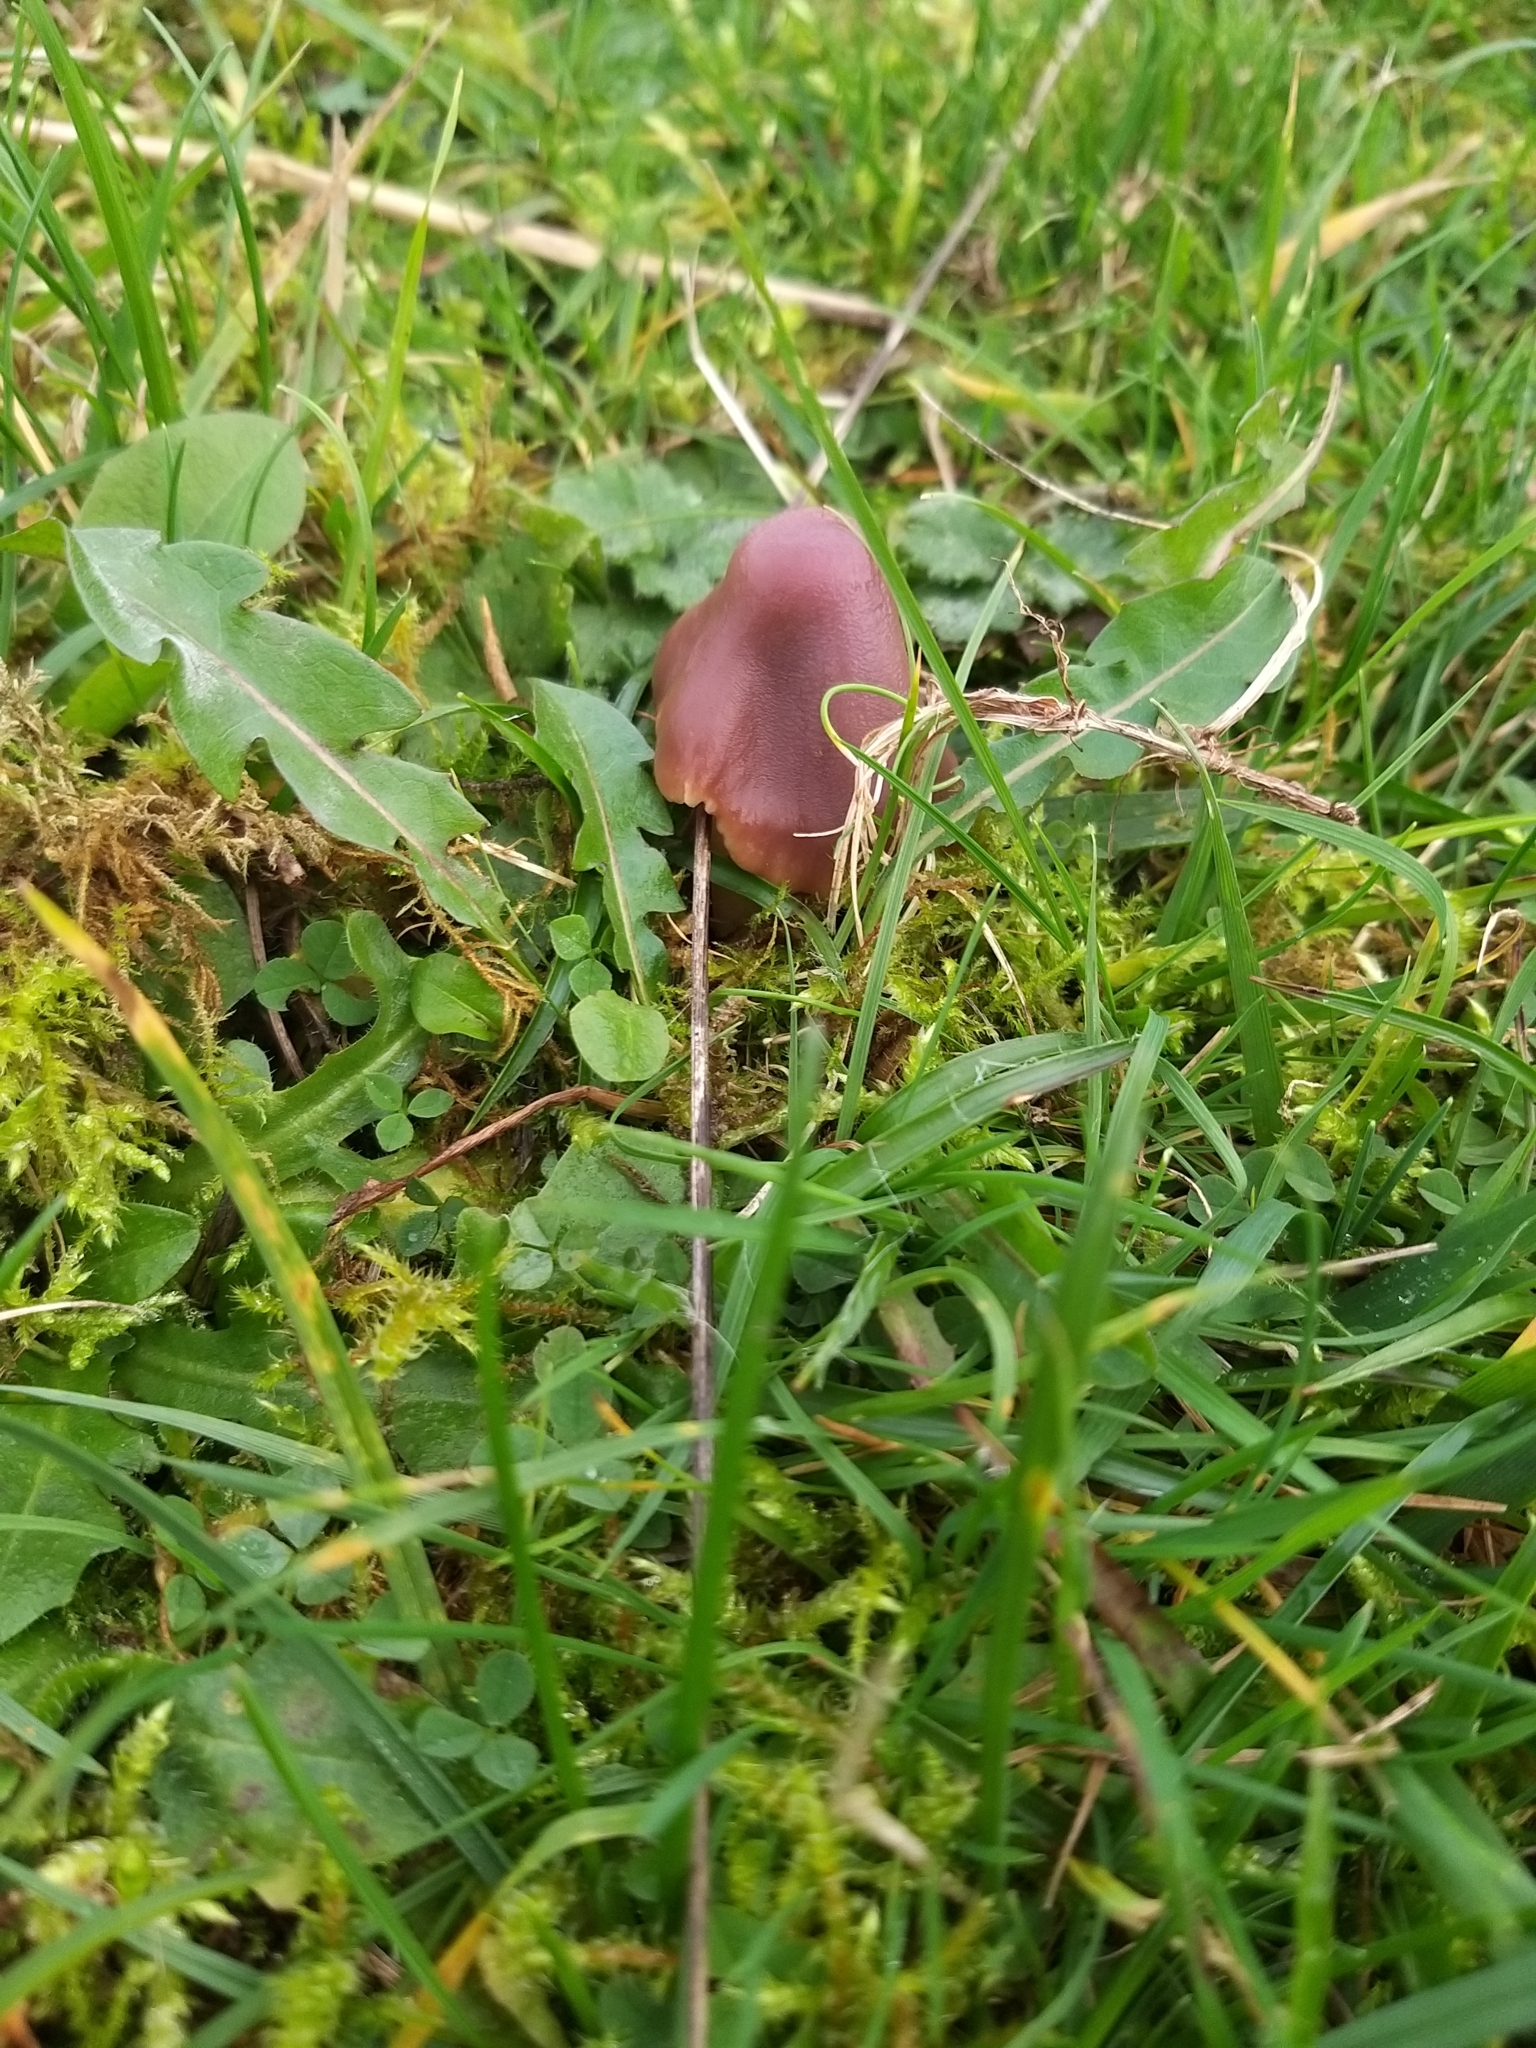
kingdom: Fungi
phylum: Basidiomycota
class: Agaricomycetes
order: Agaricales
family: Hygrophoraceae
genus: Gliophorus
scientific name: Gliophorus reginae
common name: Jubilee waxcap
